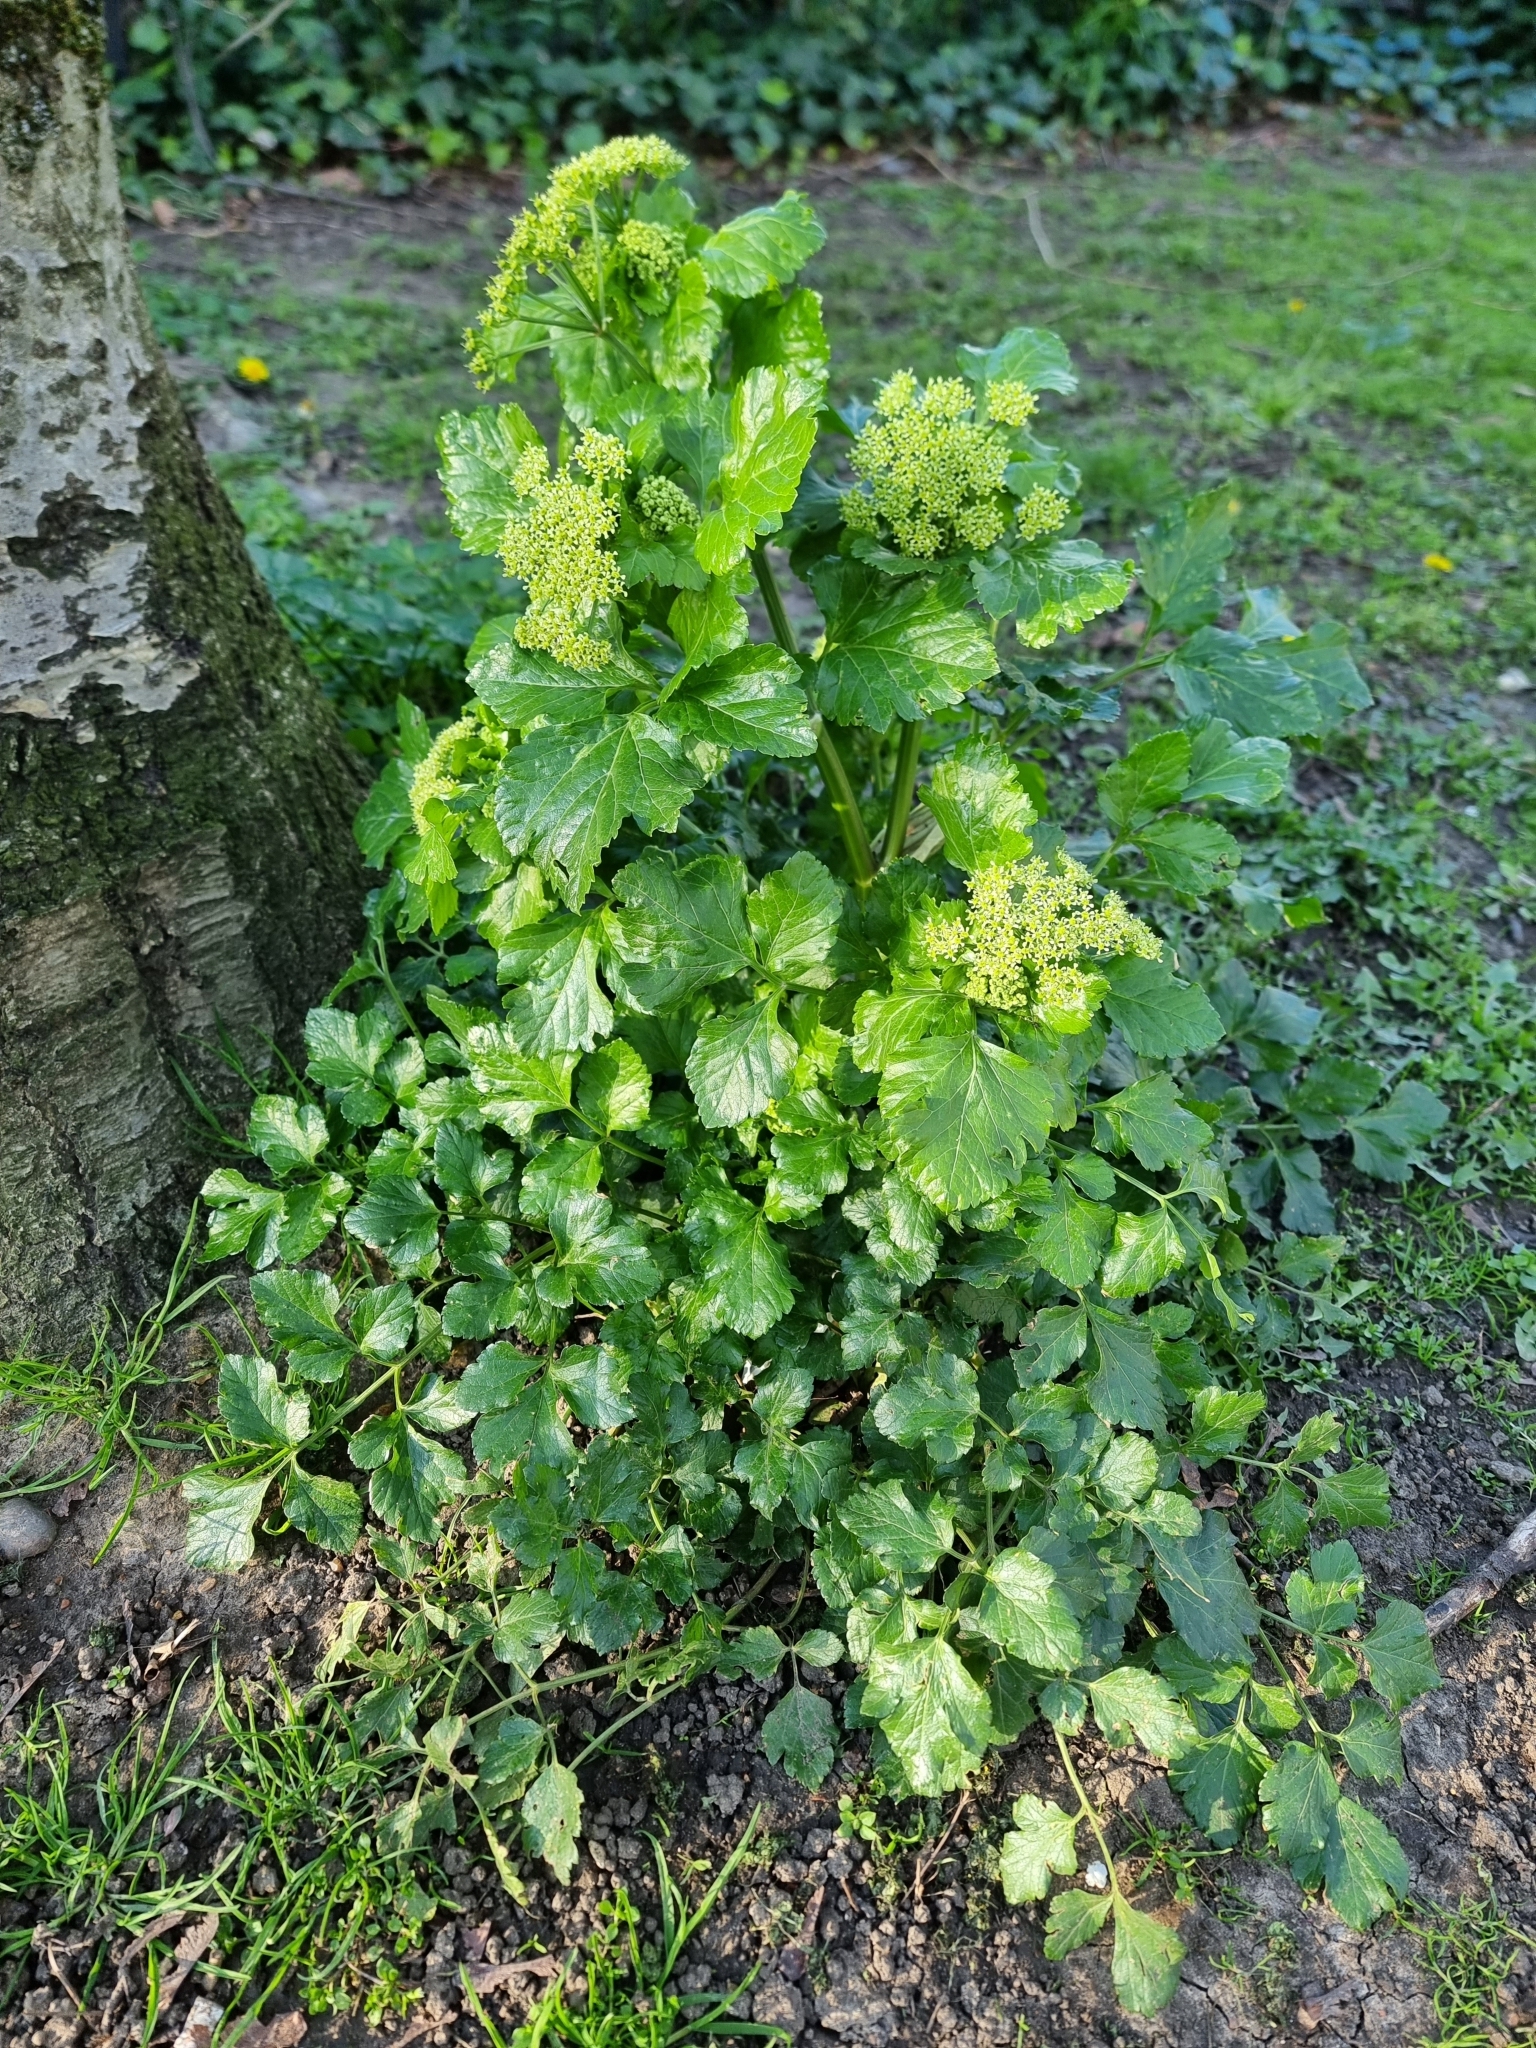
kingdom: Plantae
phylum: Tracheophyta
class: Magnoliopsida
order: Apiales
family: Apiaceae
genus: Smyrnium
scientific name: Smyrnium olusatrum
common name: Alexanders
